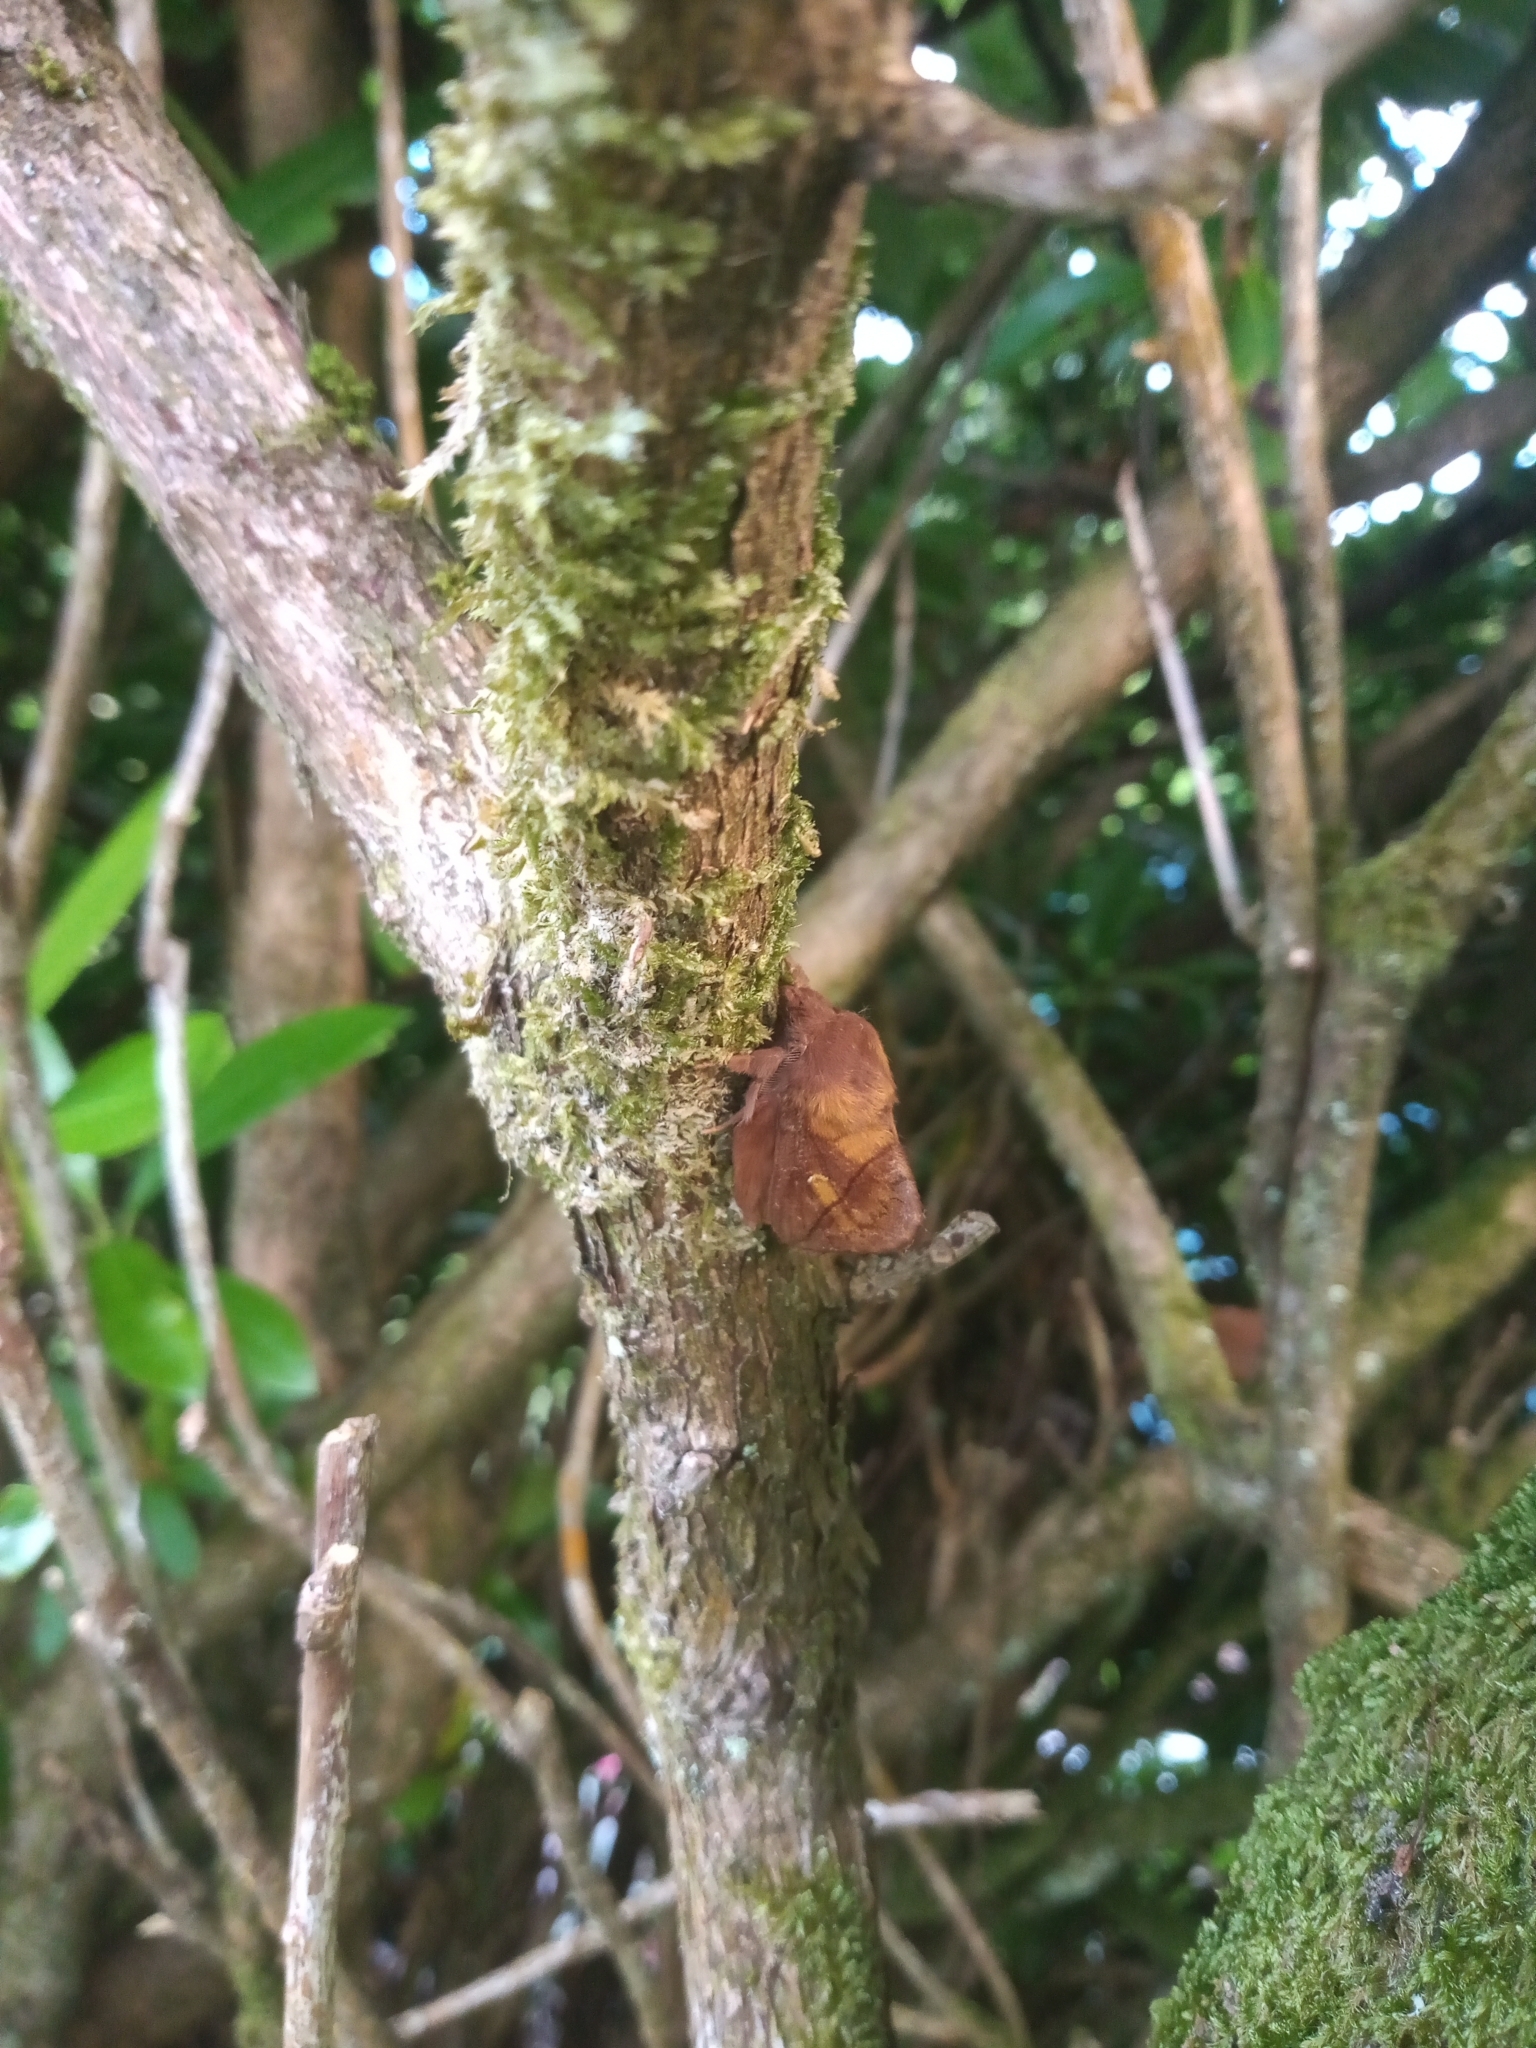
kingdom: Animalia
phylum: Arthropoda
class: Insecta
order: Lepidoptera
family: Lasiocampidae
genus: Euthrix
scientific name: Euthrix potatoria
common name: Drinker
